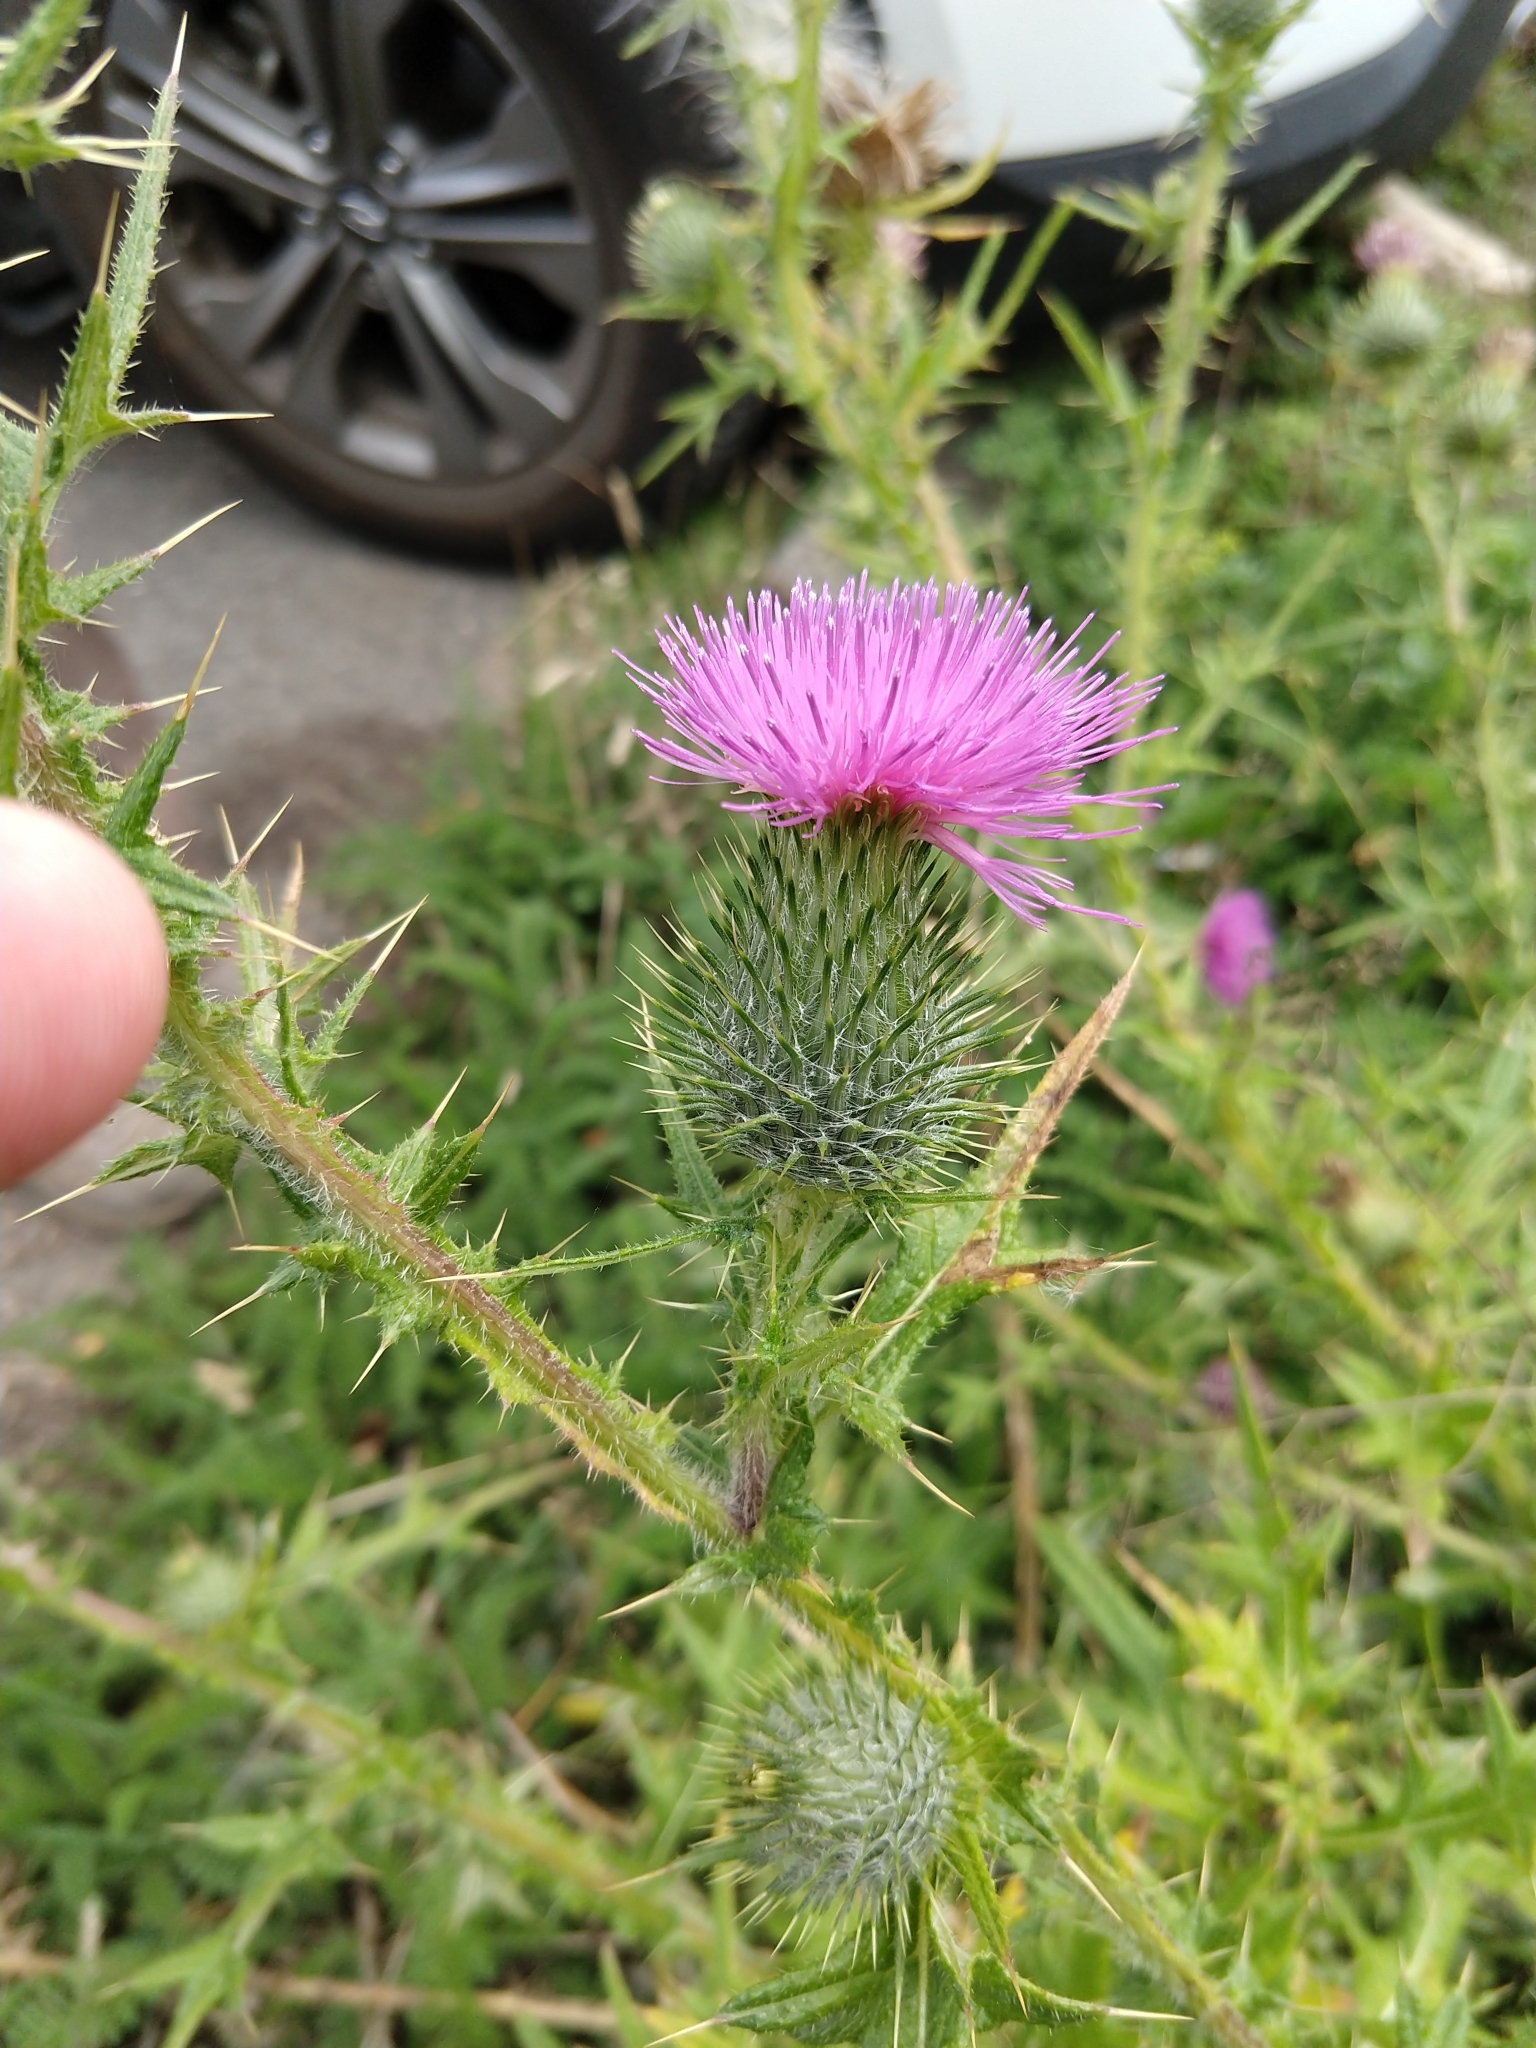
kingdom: Plantae
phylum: Tracheophyta
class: Magnoliopsida
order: Asterales
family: Asteraceae
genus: Cirsium
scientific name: Cirsium vulgare
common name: Bull thistle
